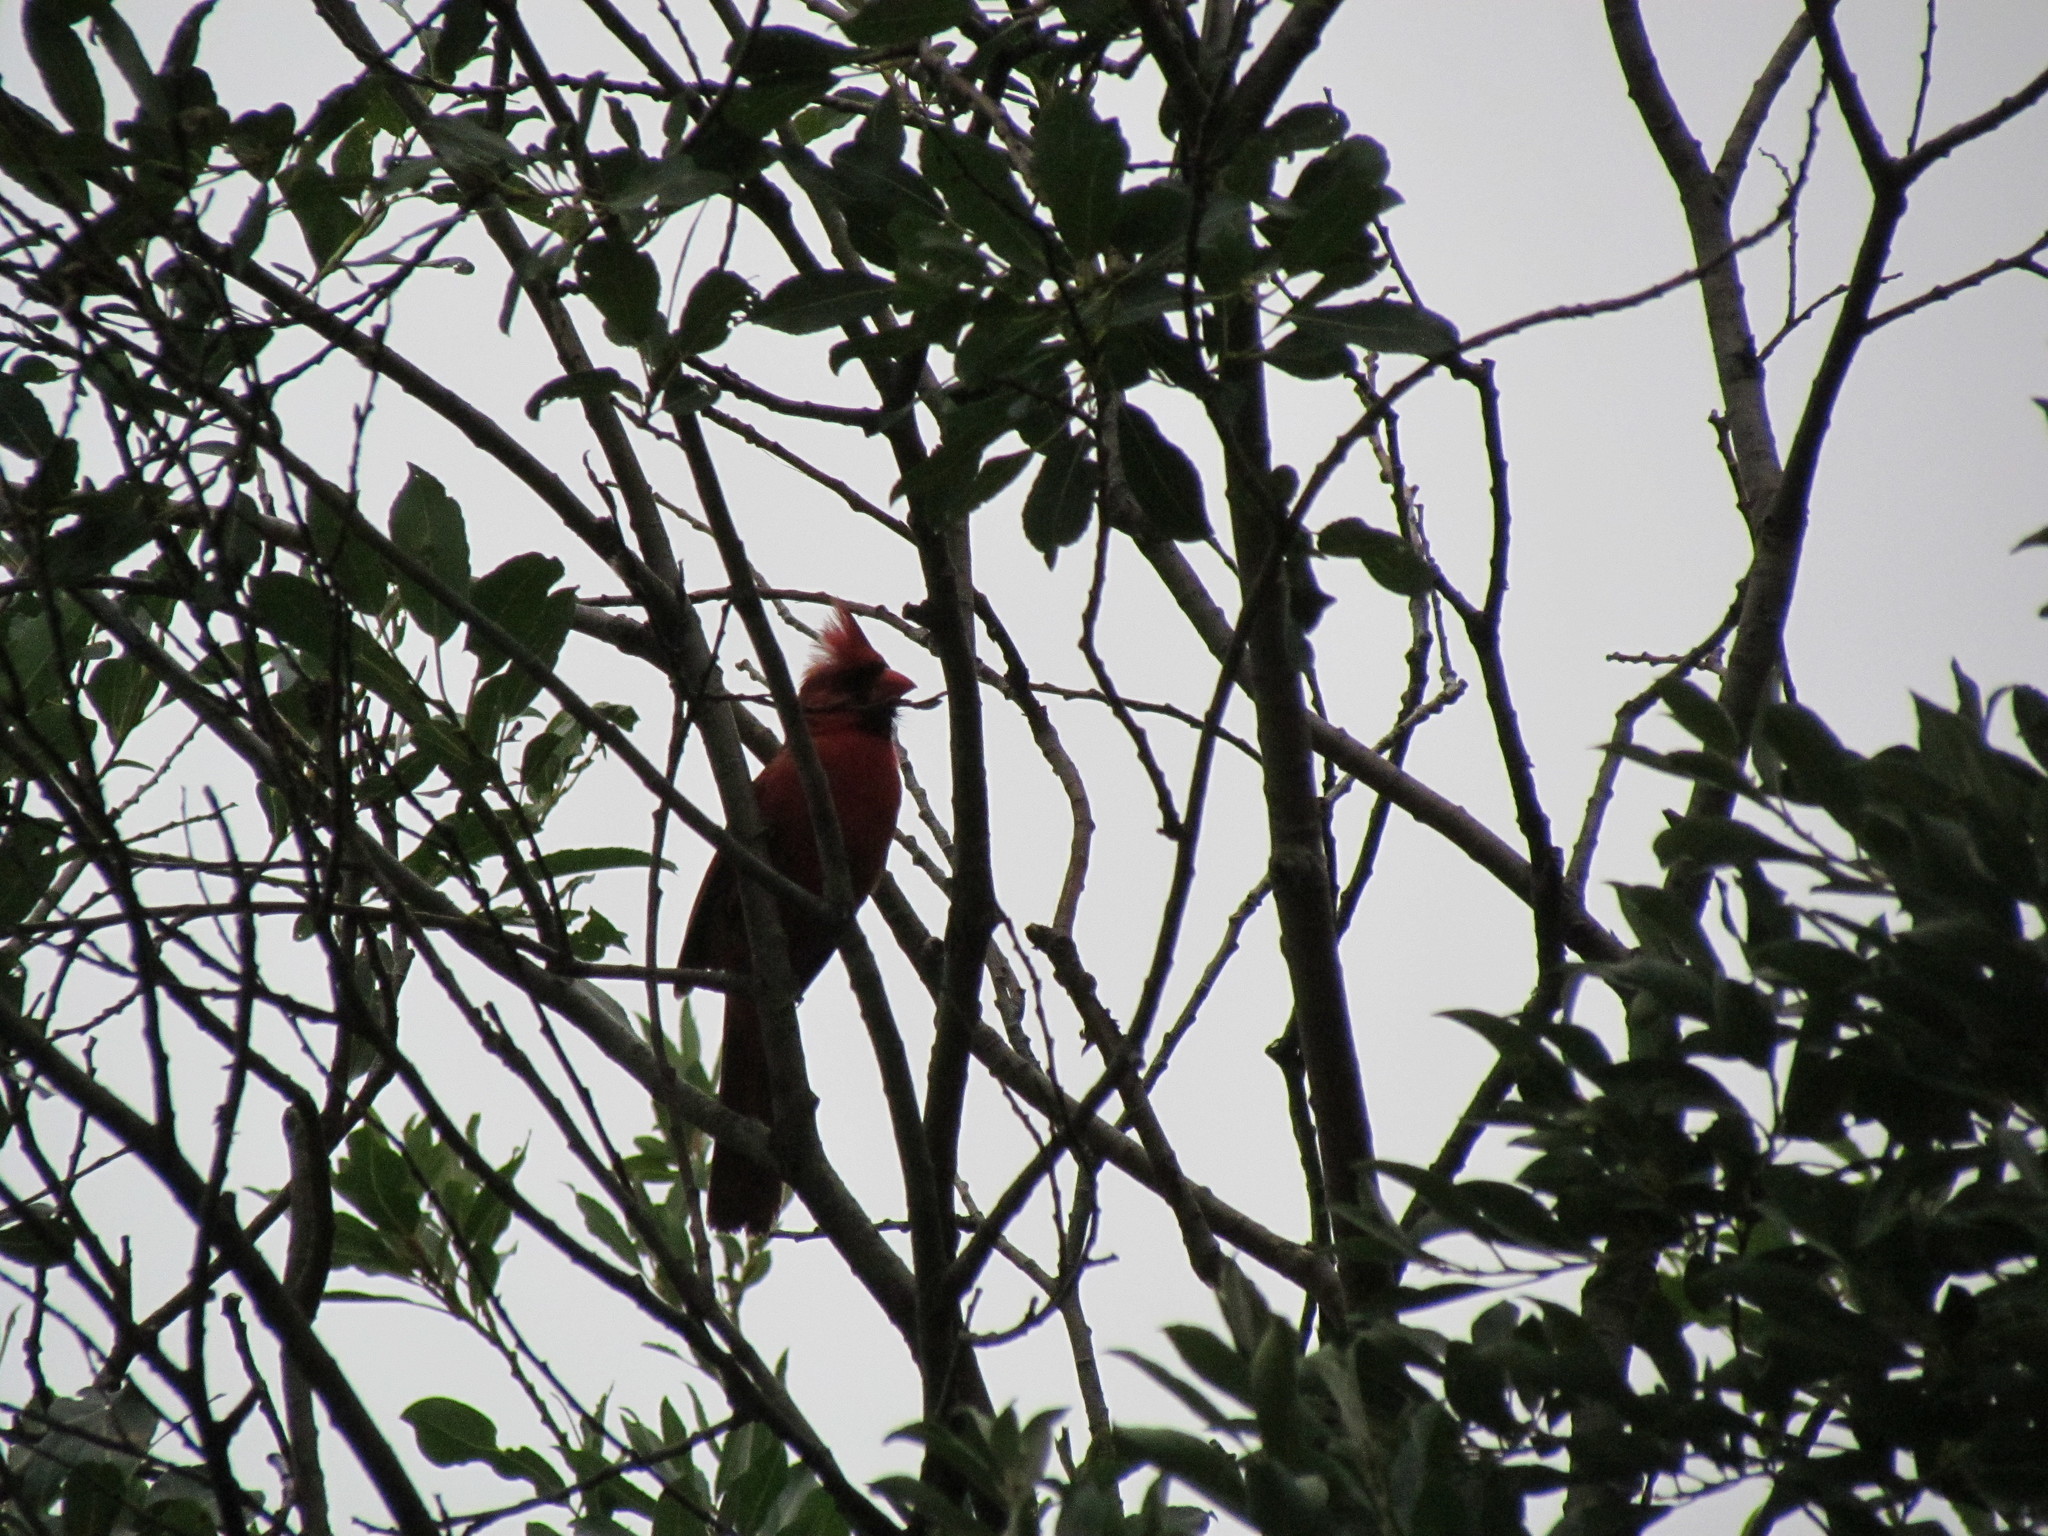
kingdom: Animalia
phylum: Chordata
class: Aves
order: Passeriformes
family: Cardinalidae
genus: Cardinalis
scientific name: Cardinalis cardinalis
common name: Northern cardinal
